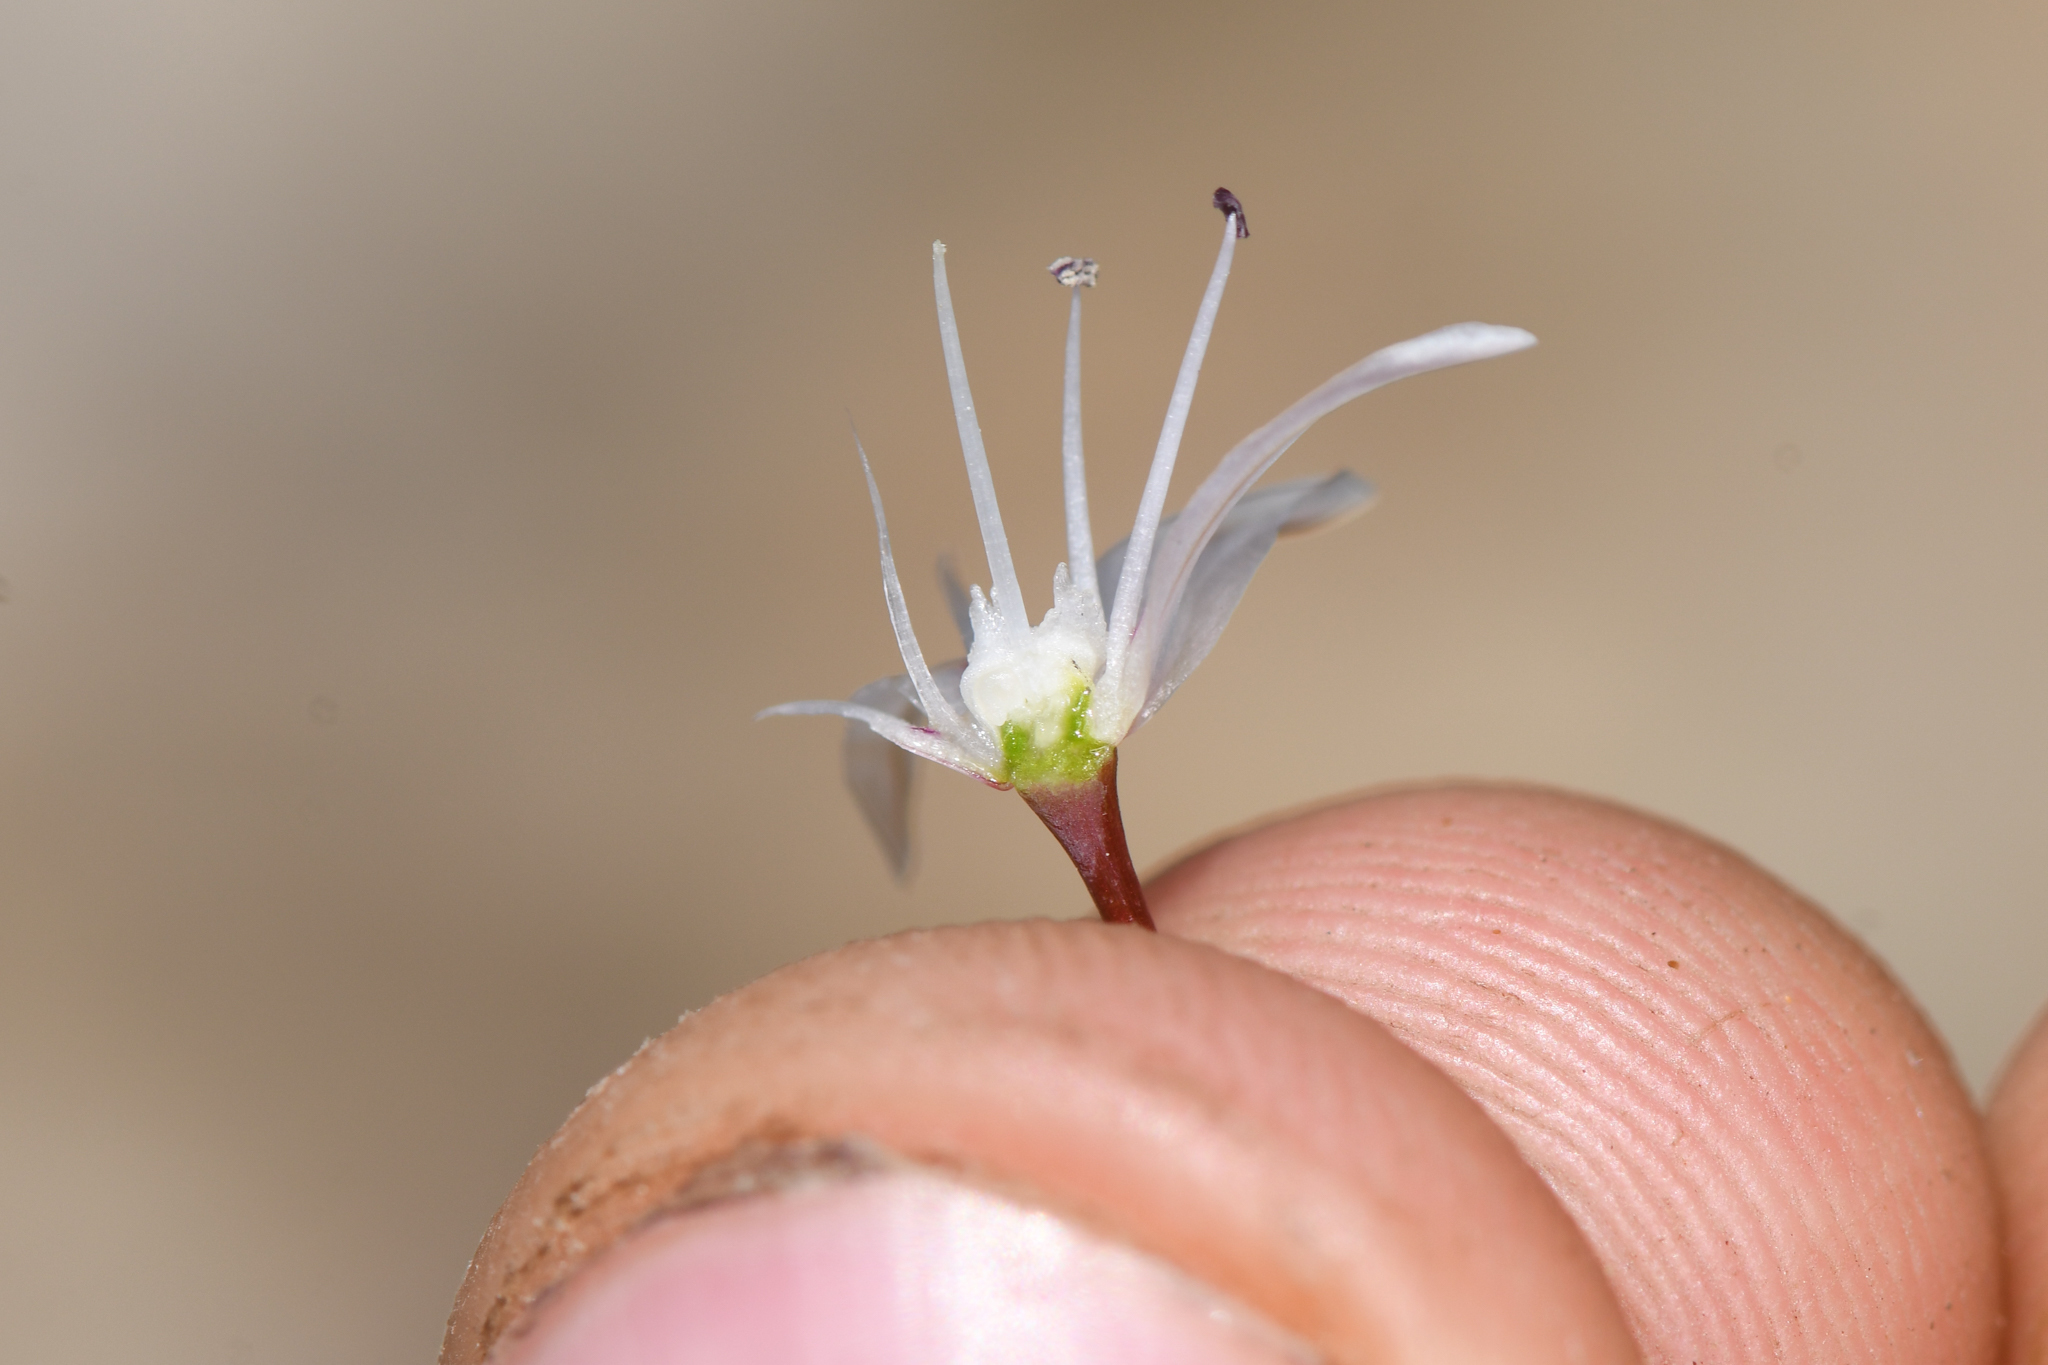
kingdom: Plantae
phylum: Tracheophyta
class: Liliopsida
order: Asparagales
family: Amaryllidaceae
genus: Allium
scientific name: Allium atrorubens
